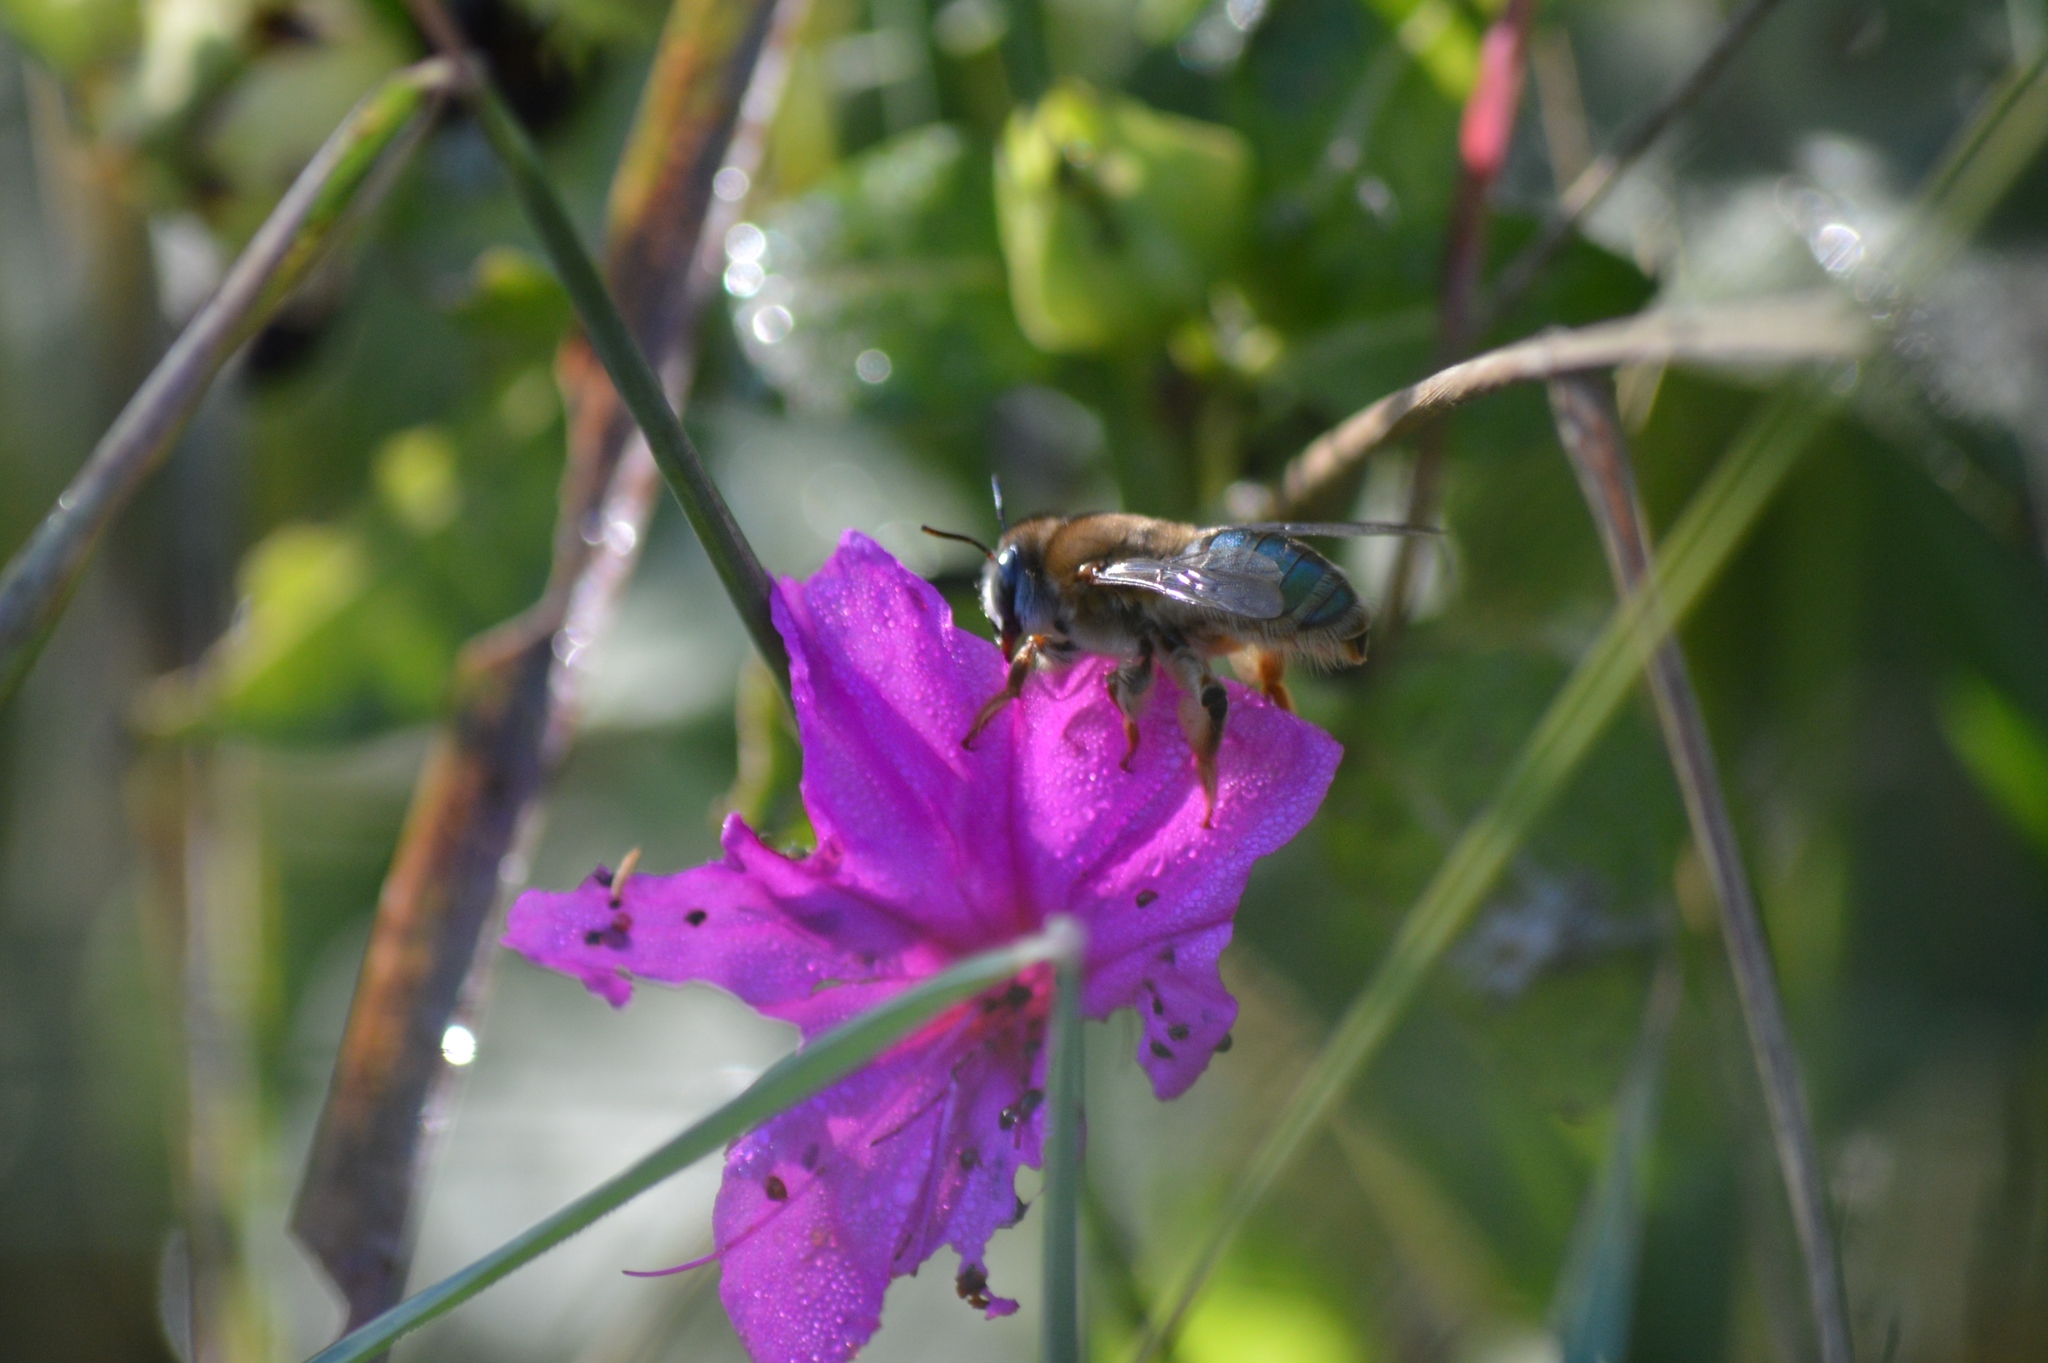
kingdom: Animalia
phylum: Arthropoda
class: Insecta
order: Hymenoptera
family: Andrenidae
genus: Oxaea
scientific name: Oxaea flavescens
